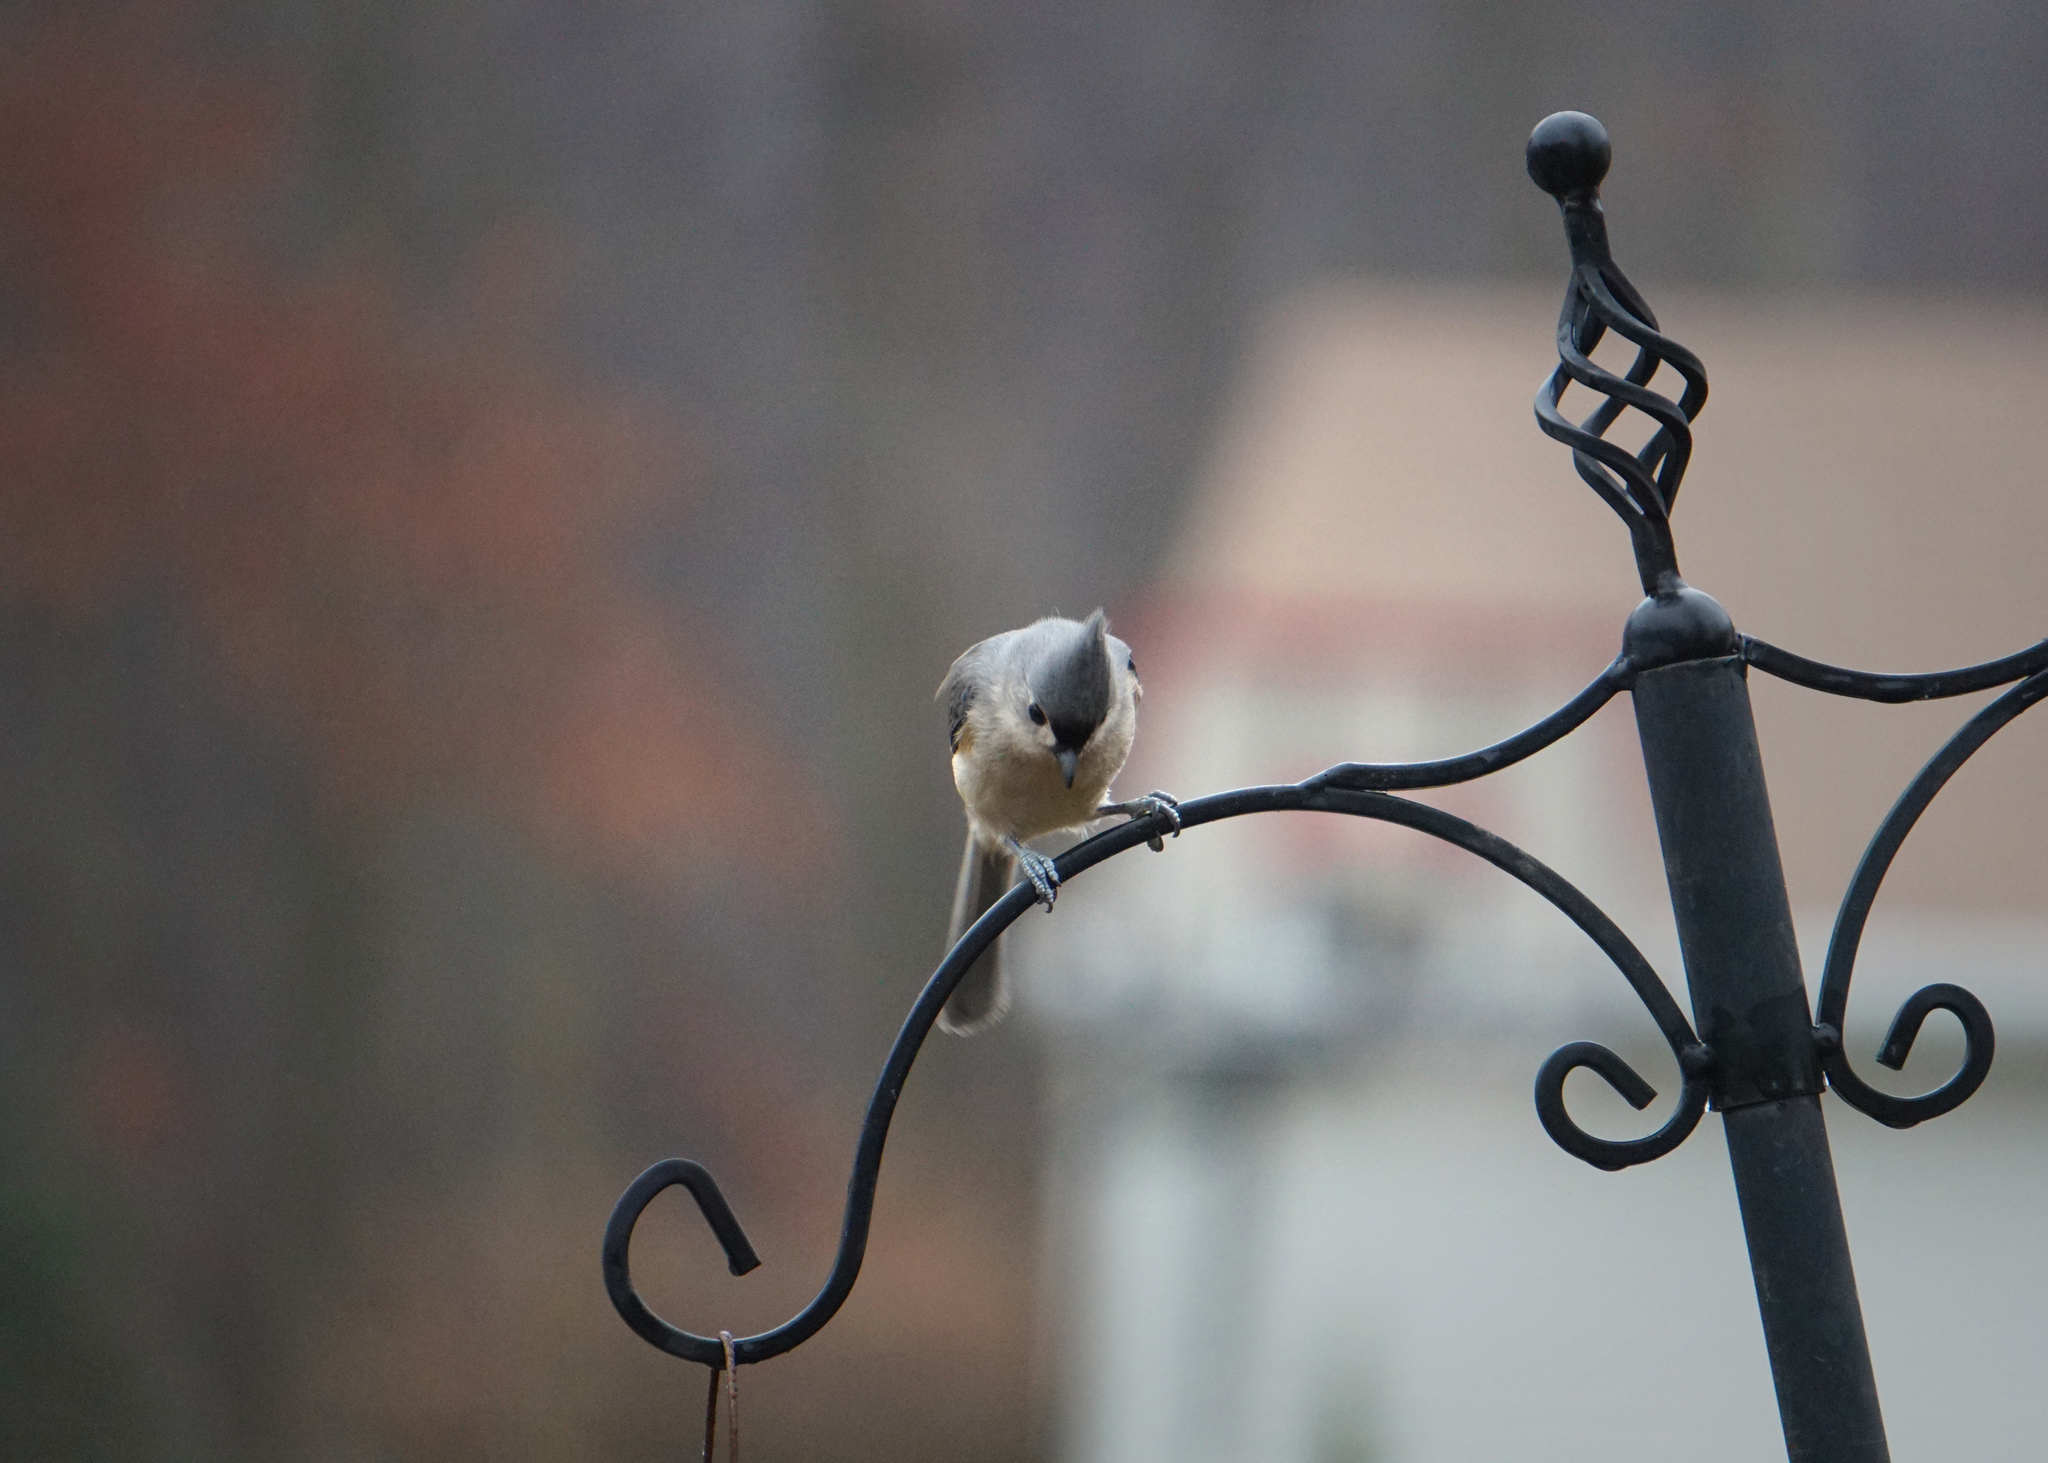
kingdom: Animalia
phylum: Chordata
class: Aves
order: Passeriformes
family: Paridae
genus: Baeolophus
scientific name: Baeolophus bicolor
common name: Tufted titmouse
